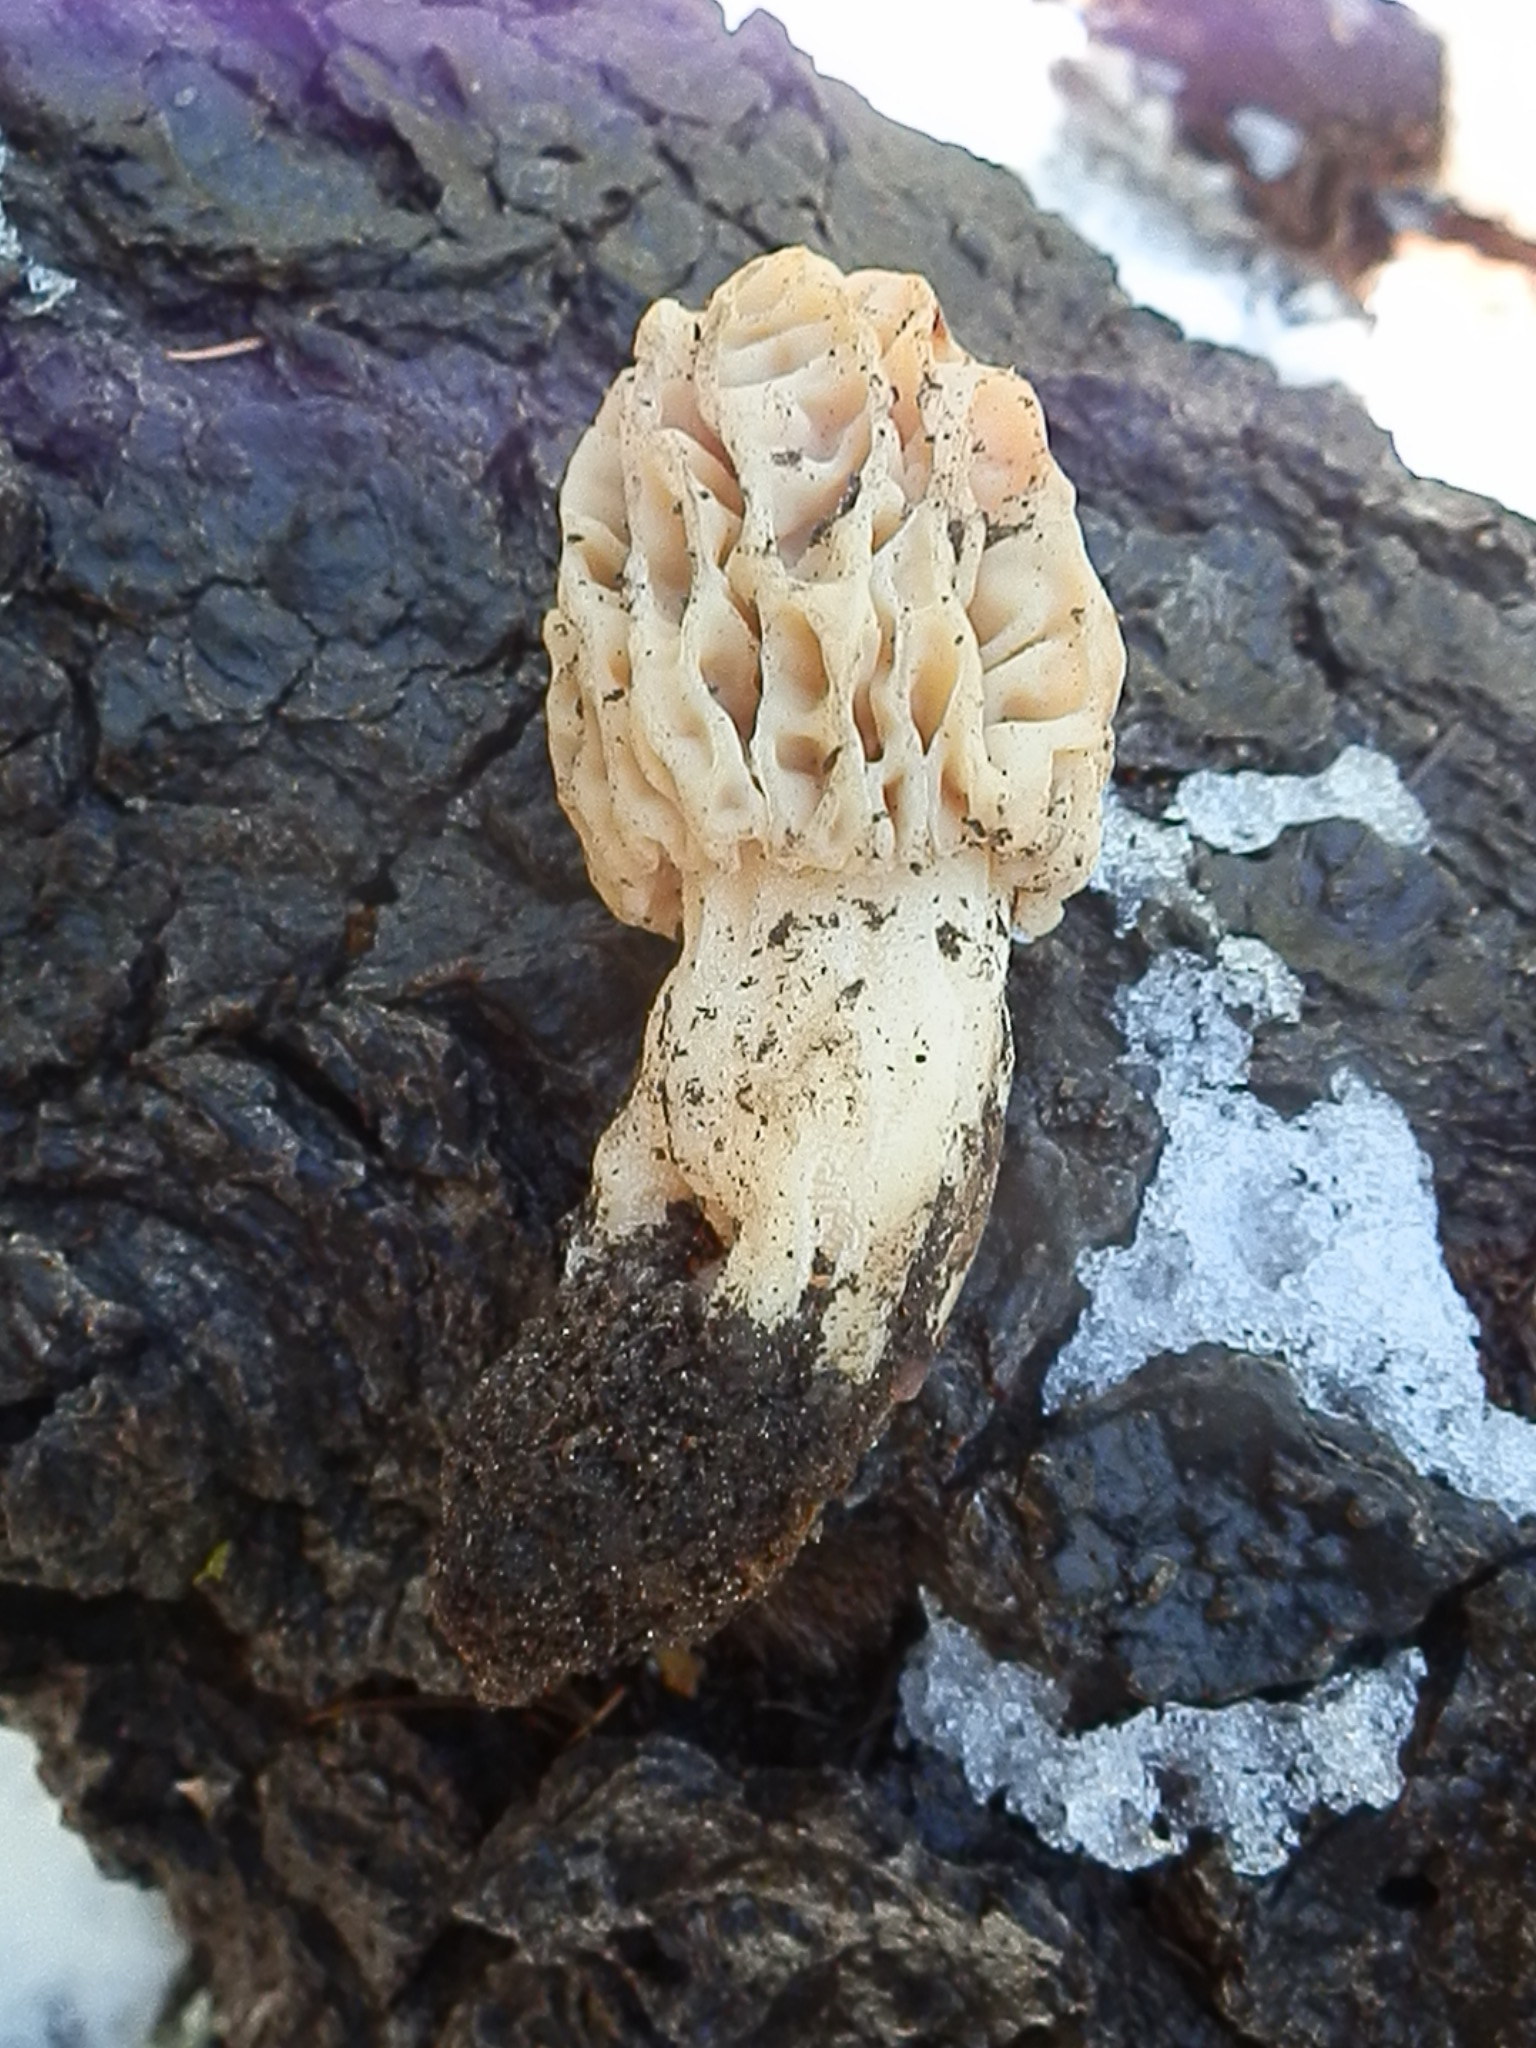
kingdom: Fungi
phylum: Ascomycota
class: Pezizomycetes
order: Pezizales
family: Morchellaceae
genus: Morchella
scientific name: Morchella tridentina
